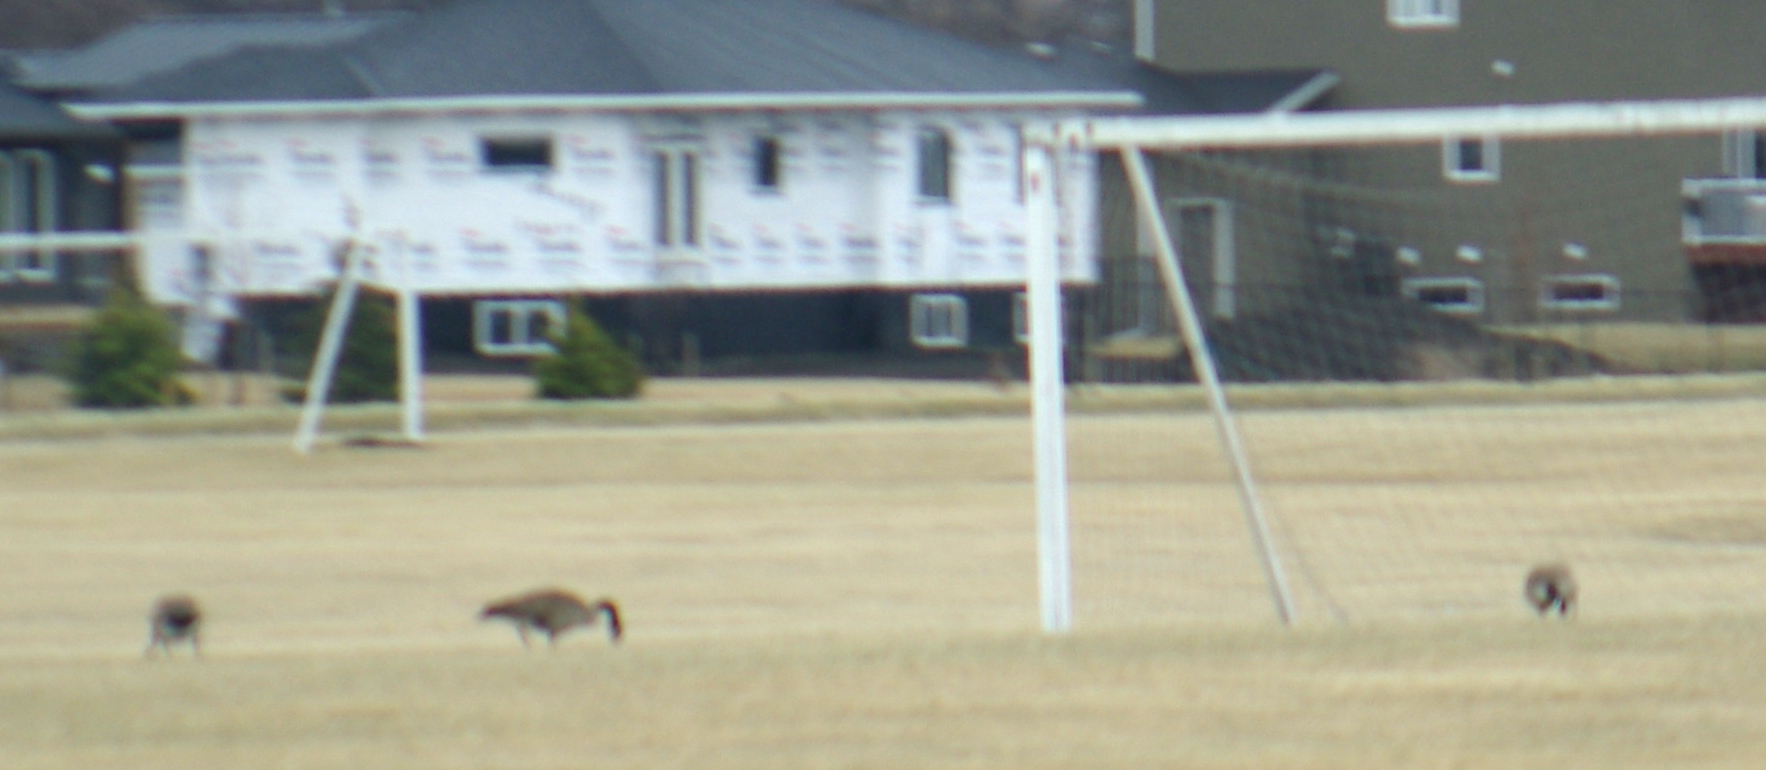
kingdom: Animalia
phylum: Chordata
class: Aves
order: Anseriformes
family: Anatidae
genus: Branta
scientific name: Branta canadensis
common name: Canada goose
